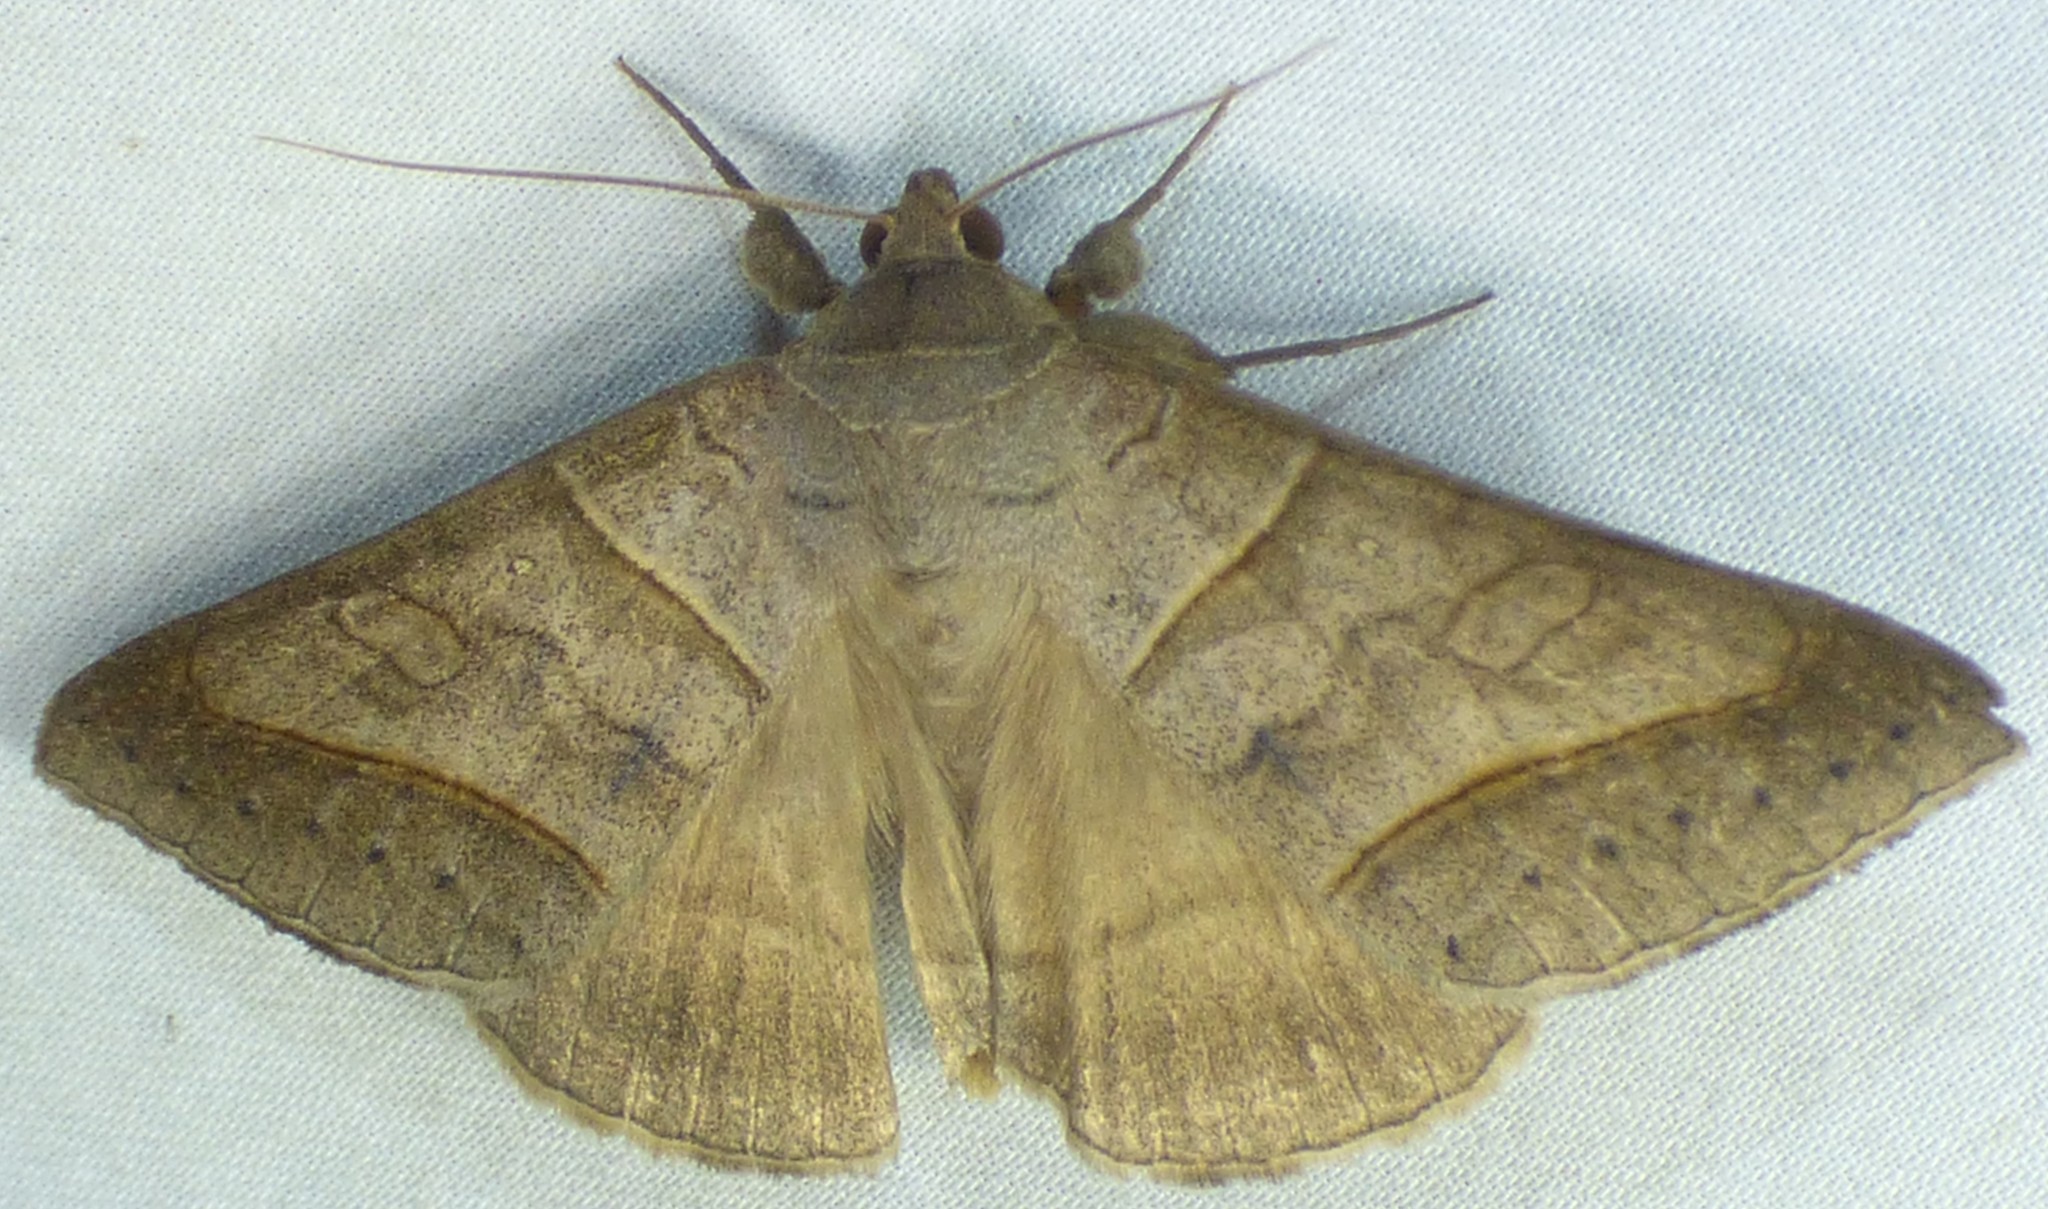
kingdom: Animalia
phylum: Arthropoda
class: Insecta
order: Lepidoptera
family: Erebidae
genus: Mocis
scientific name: Mocis texana
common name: Texas mocis moth
